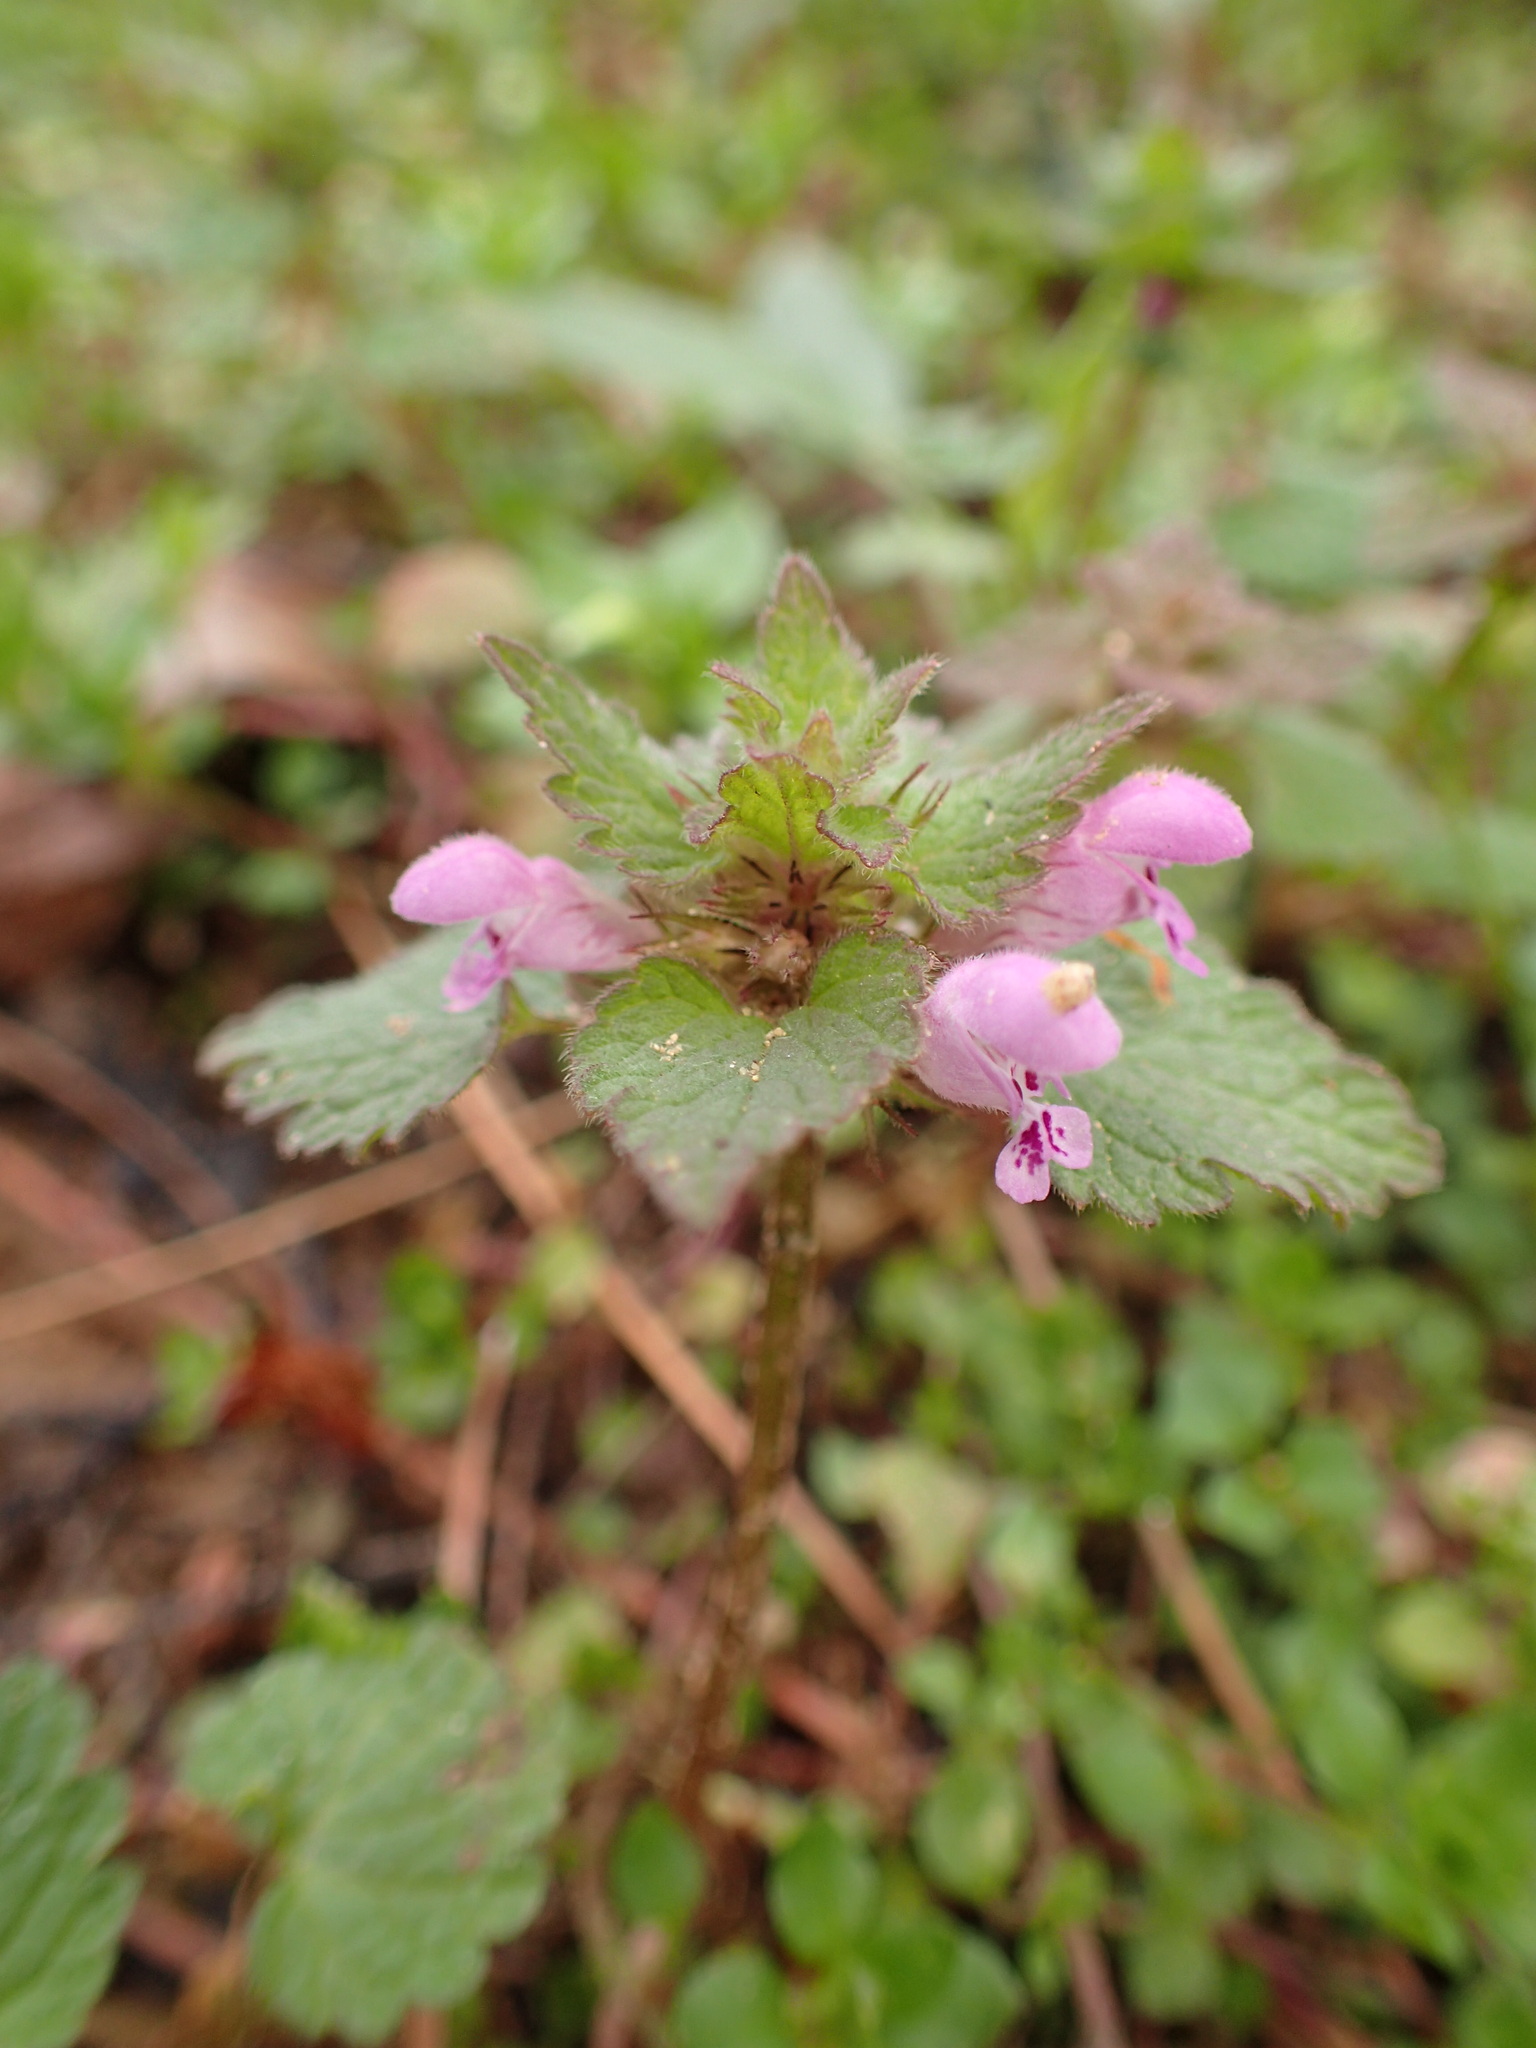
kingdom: Plantae
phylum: Tracheophyta
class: Magnoliopsida
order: Lamiales
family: Lamiaceae
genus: Lamium
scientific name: Lamium purpureum
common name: Red dead-nettle
